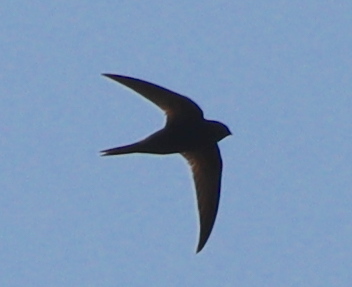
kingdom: Animalia
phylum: Chordata
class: Aves
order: Apodiformes
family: Apodidae
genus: Apus
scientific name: Apus apus
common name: Common swift
